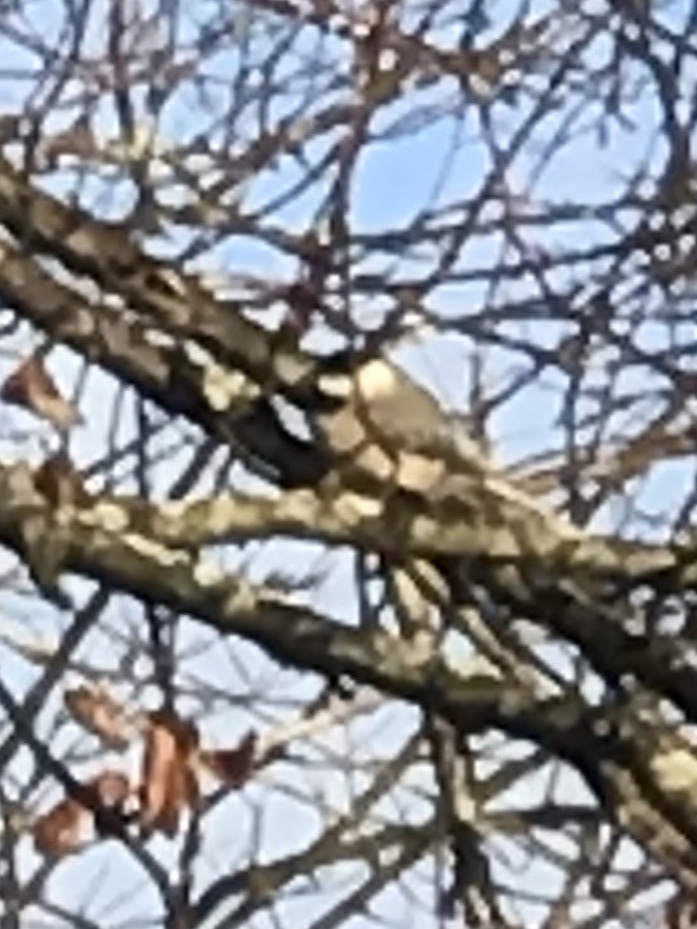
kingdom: Animalia
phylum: Chordata
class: Aves
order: Passeriformes
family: Paridae
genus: Poecile
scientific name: Poecile carolinensis
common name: Carolina chickadee
